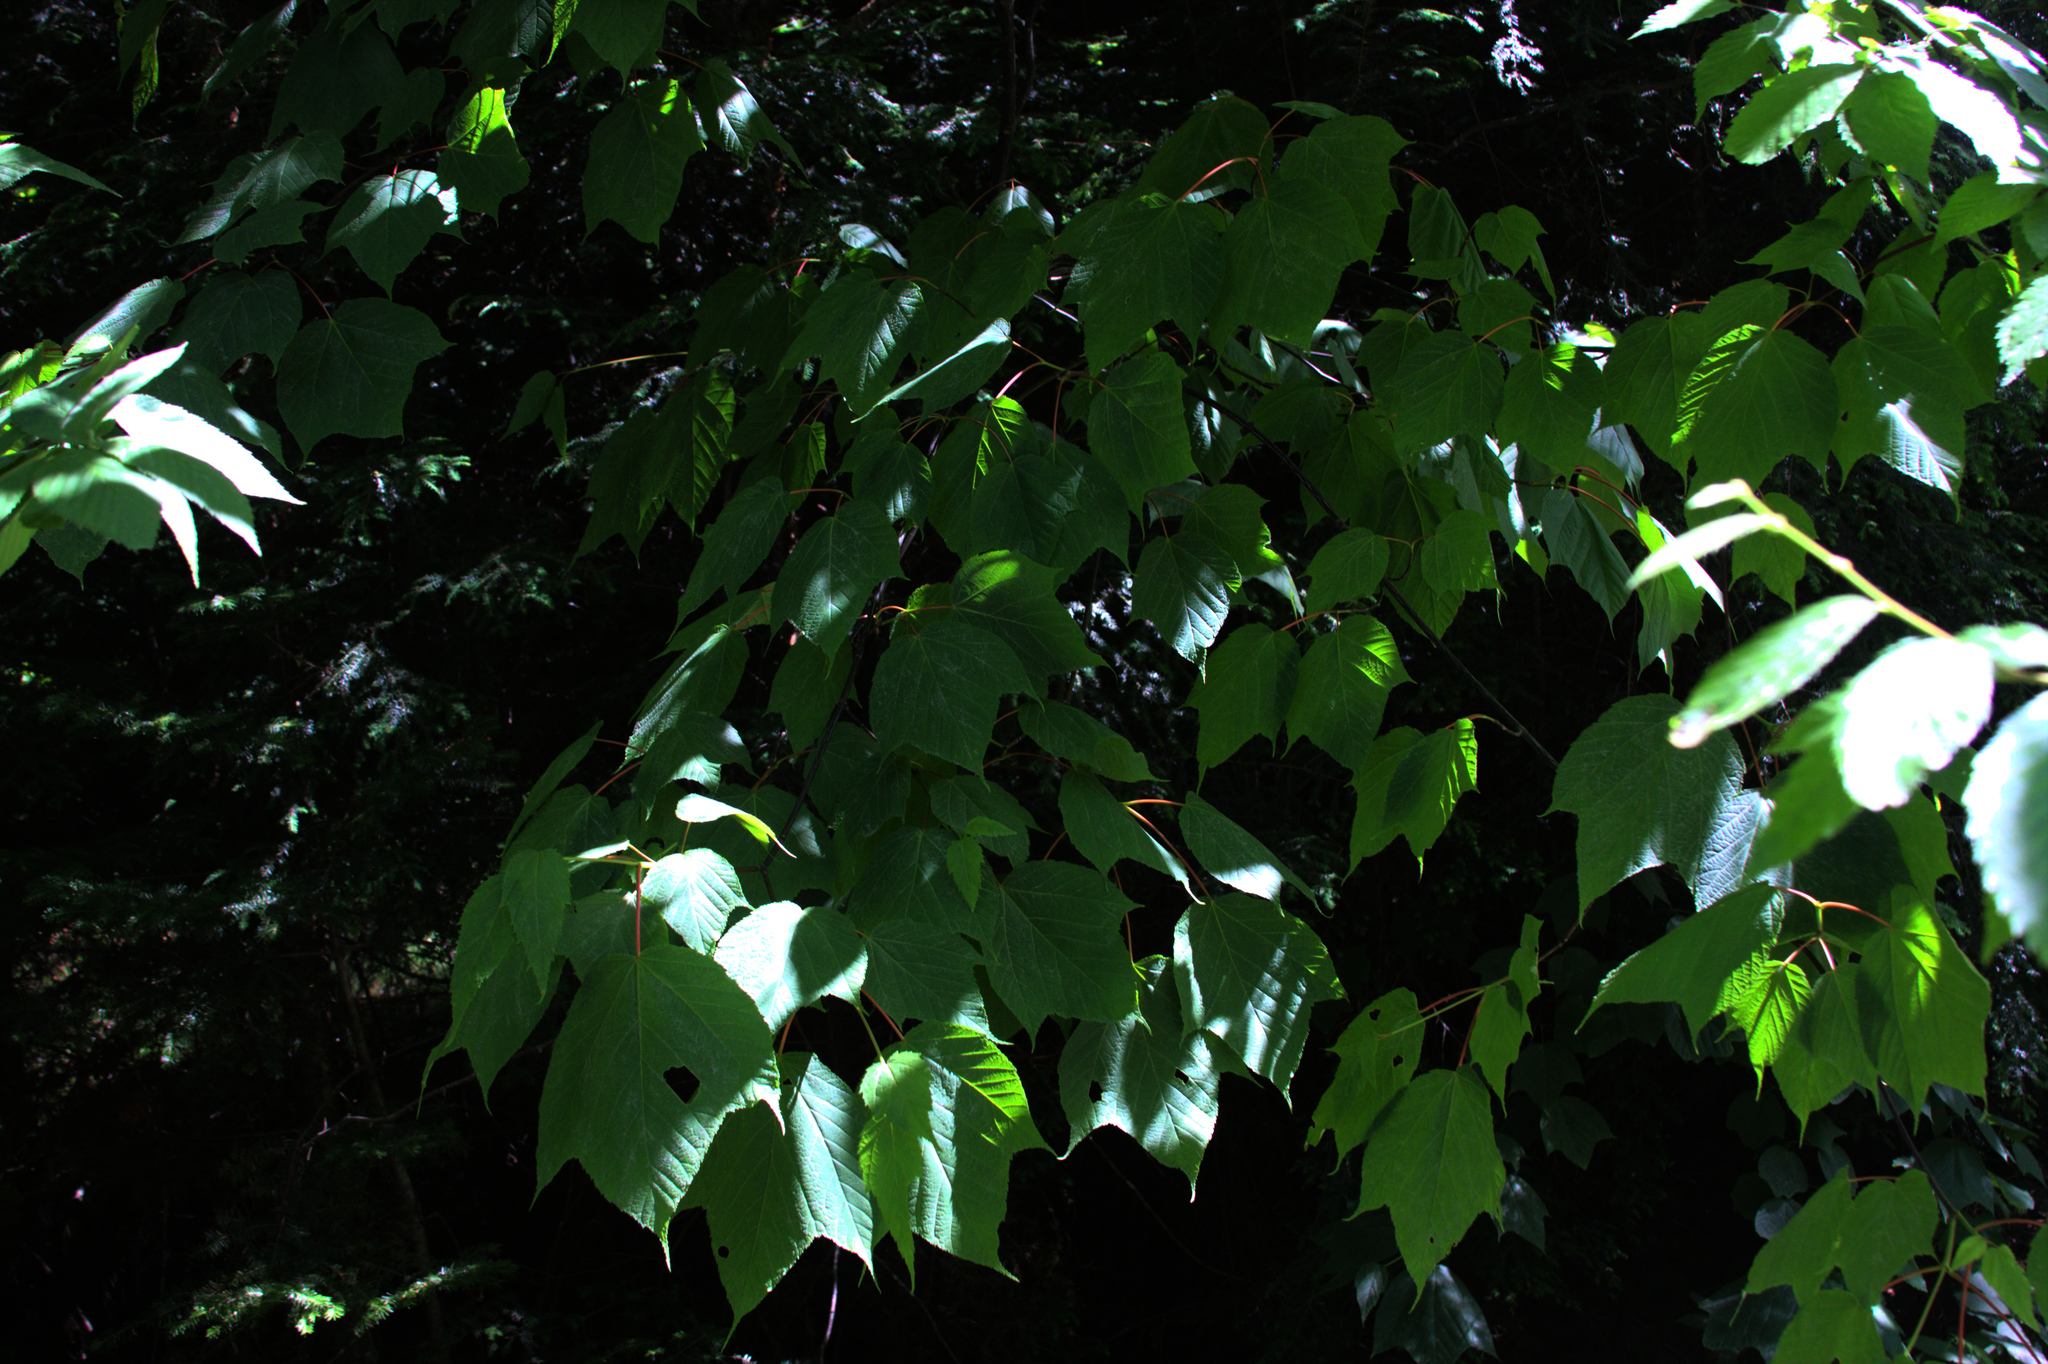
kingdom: Plantae
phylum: Tracheophyta
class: Magnoliopsida
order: Sapindales
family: Sapindaceae
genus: Acer
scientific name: Acer pensylvanicum
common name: Moosewood
